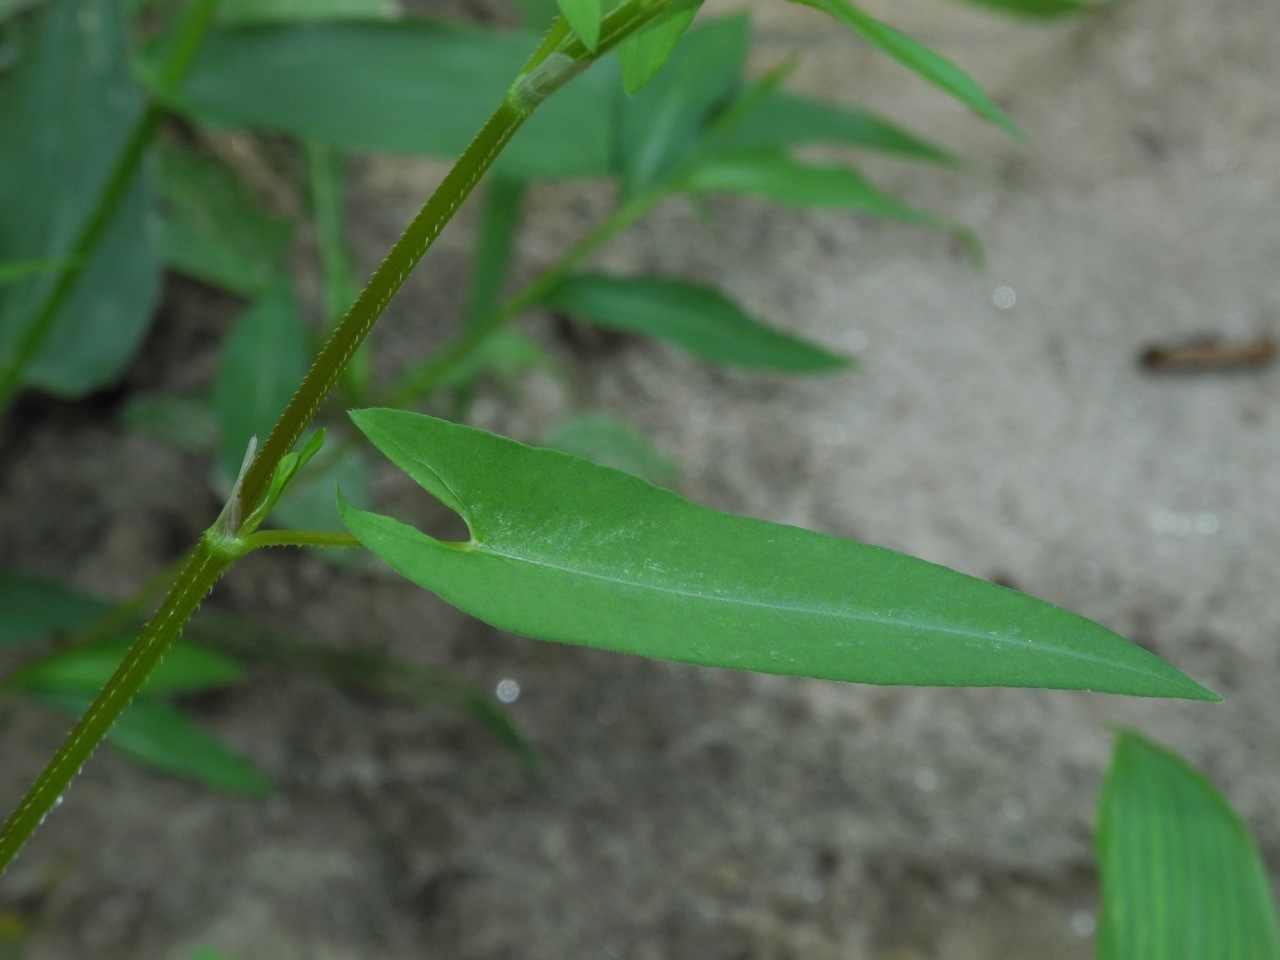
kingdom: Plantae
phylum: Tracheophyta
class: Magnoliopsida
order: Caryophyllales
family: Polygonaceae
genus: Persicaria
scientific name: Persicaria sagittata
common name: American tearthumb
